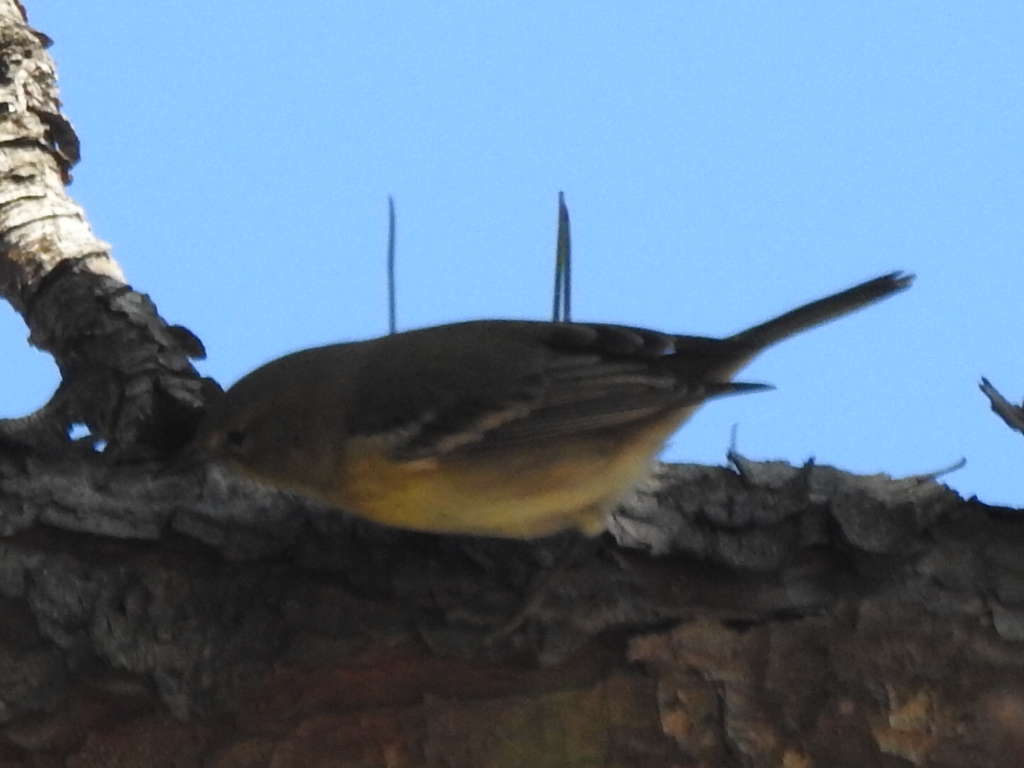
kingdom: Animalia
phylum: Chordata
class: Aves
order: Passeriformes
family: Parulidae
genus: Setophaga
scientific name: Setophaga pinus
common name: Pine warbler
